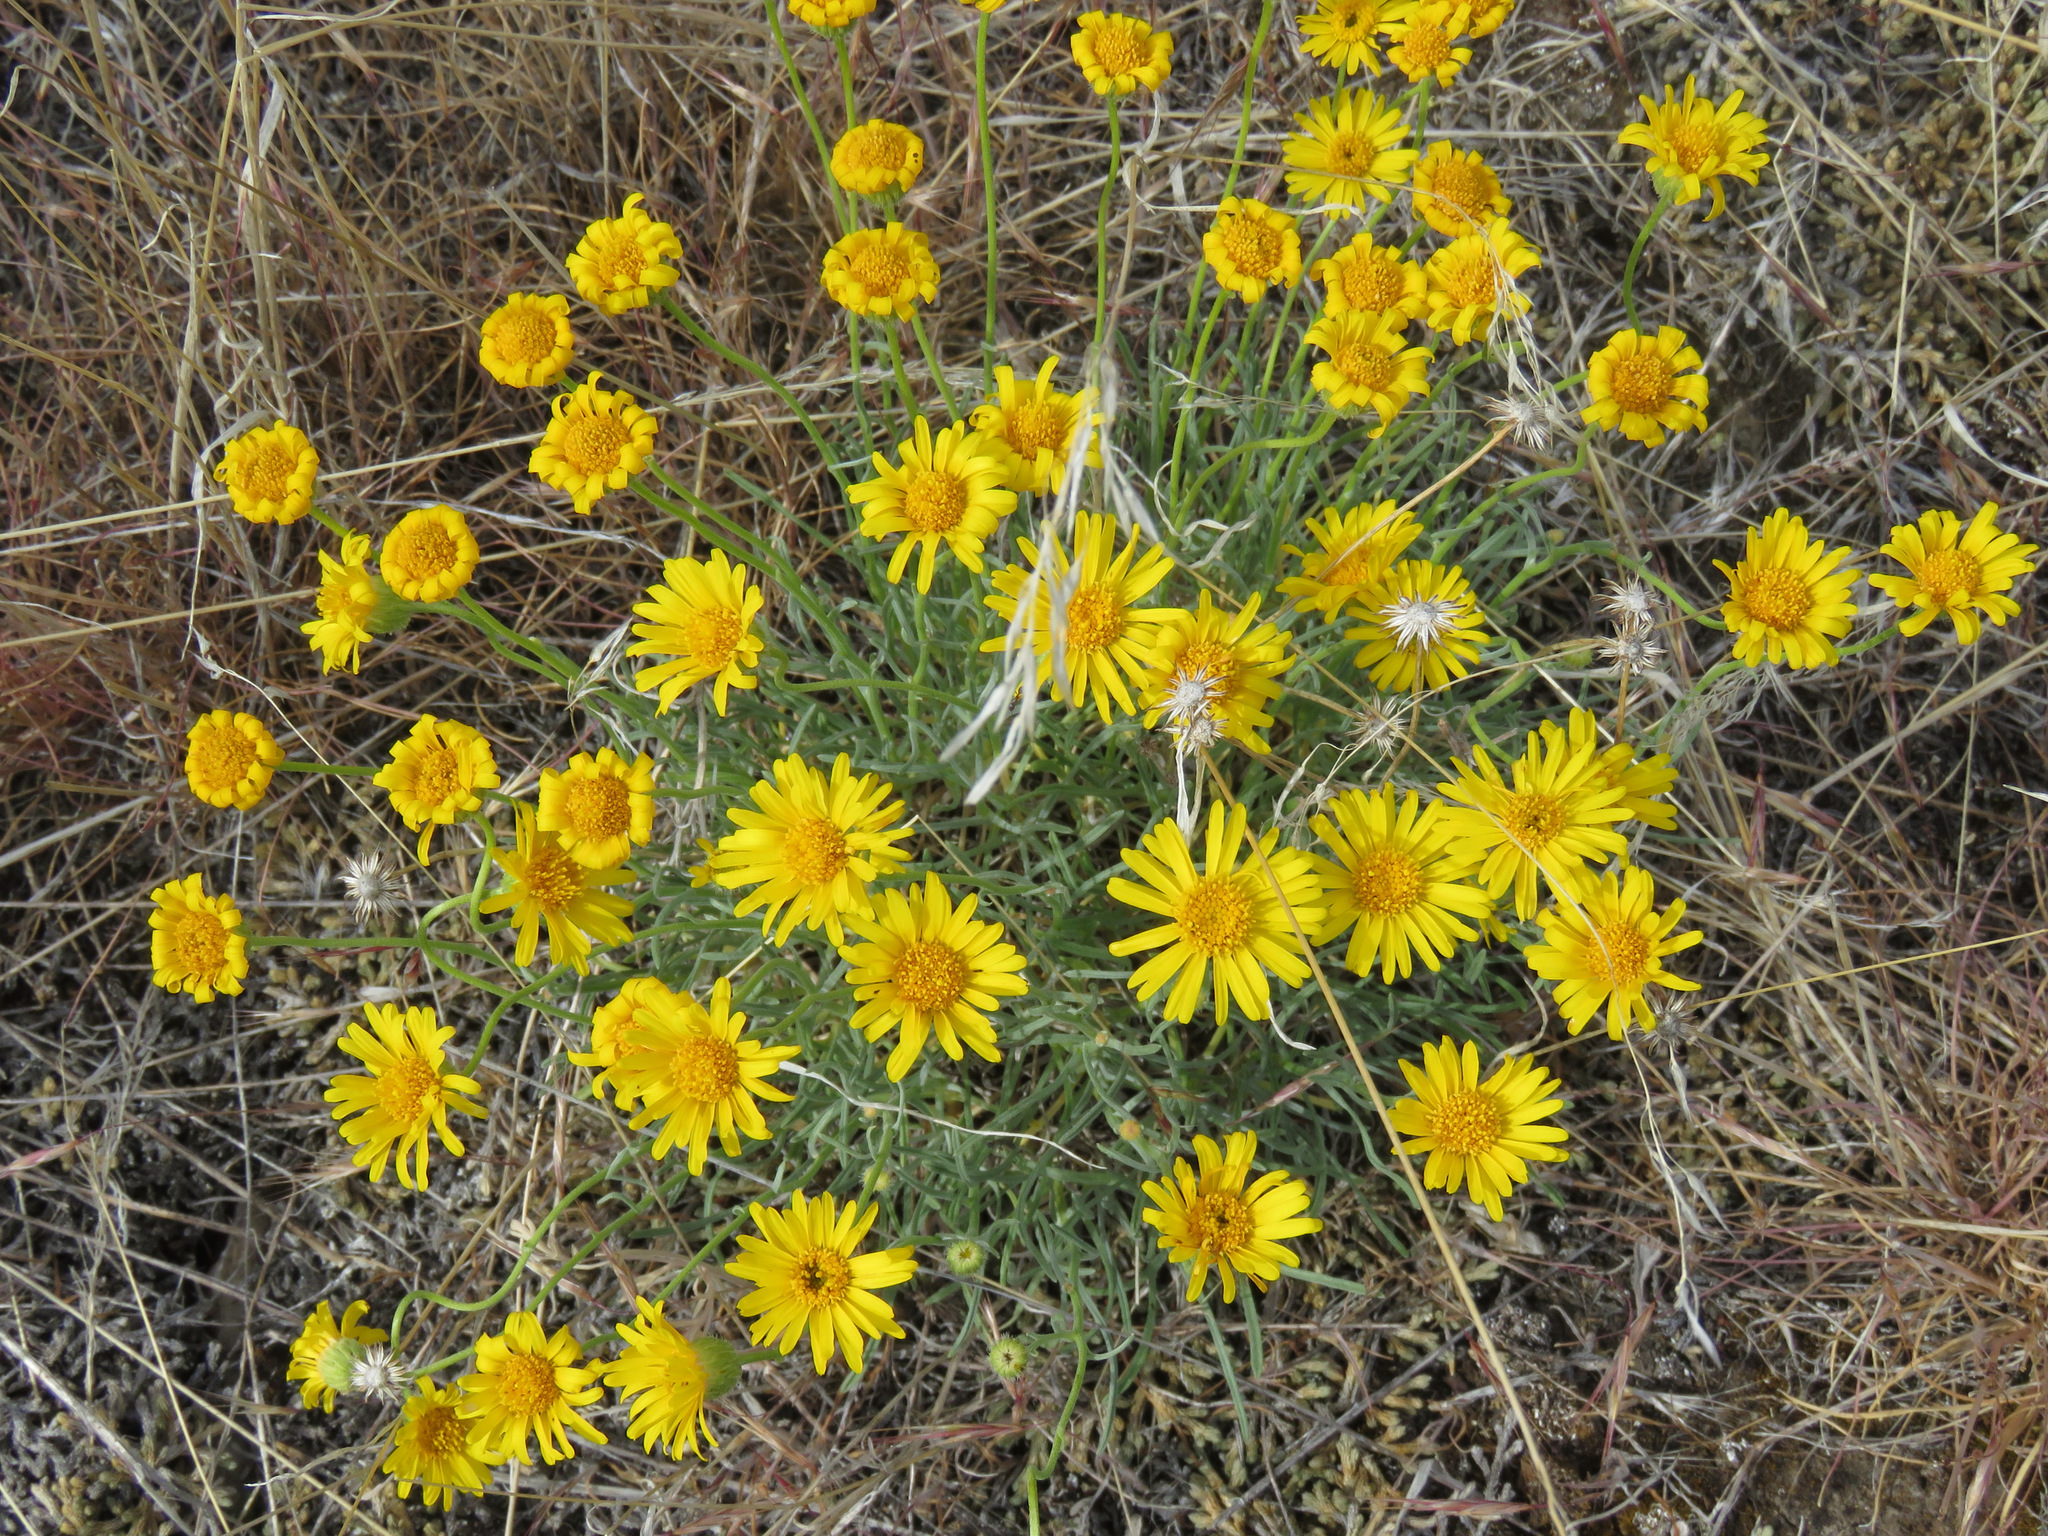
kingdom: Plantae
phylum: Tracheophyta
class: Magnoliopsida
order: Asterales
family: Asteraceae
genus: Erigeron
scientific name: Erigeron linearis
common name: Desert yellow fleabane
